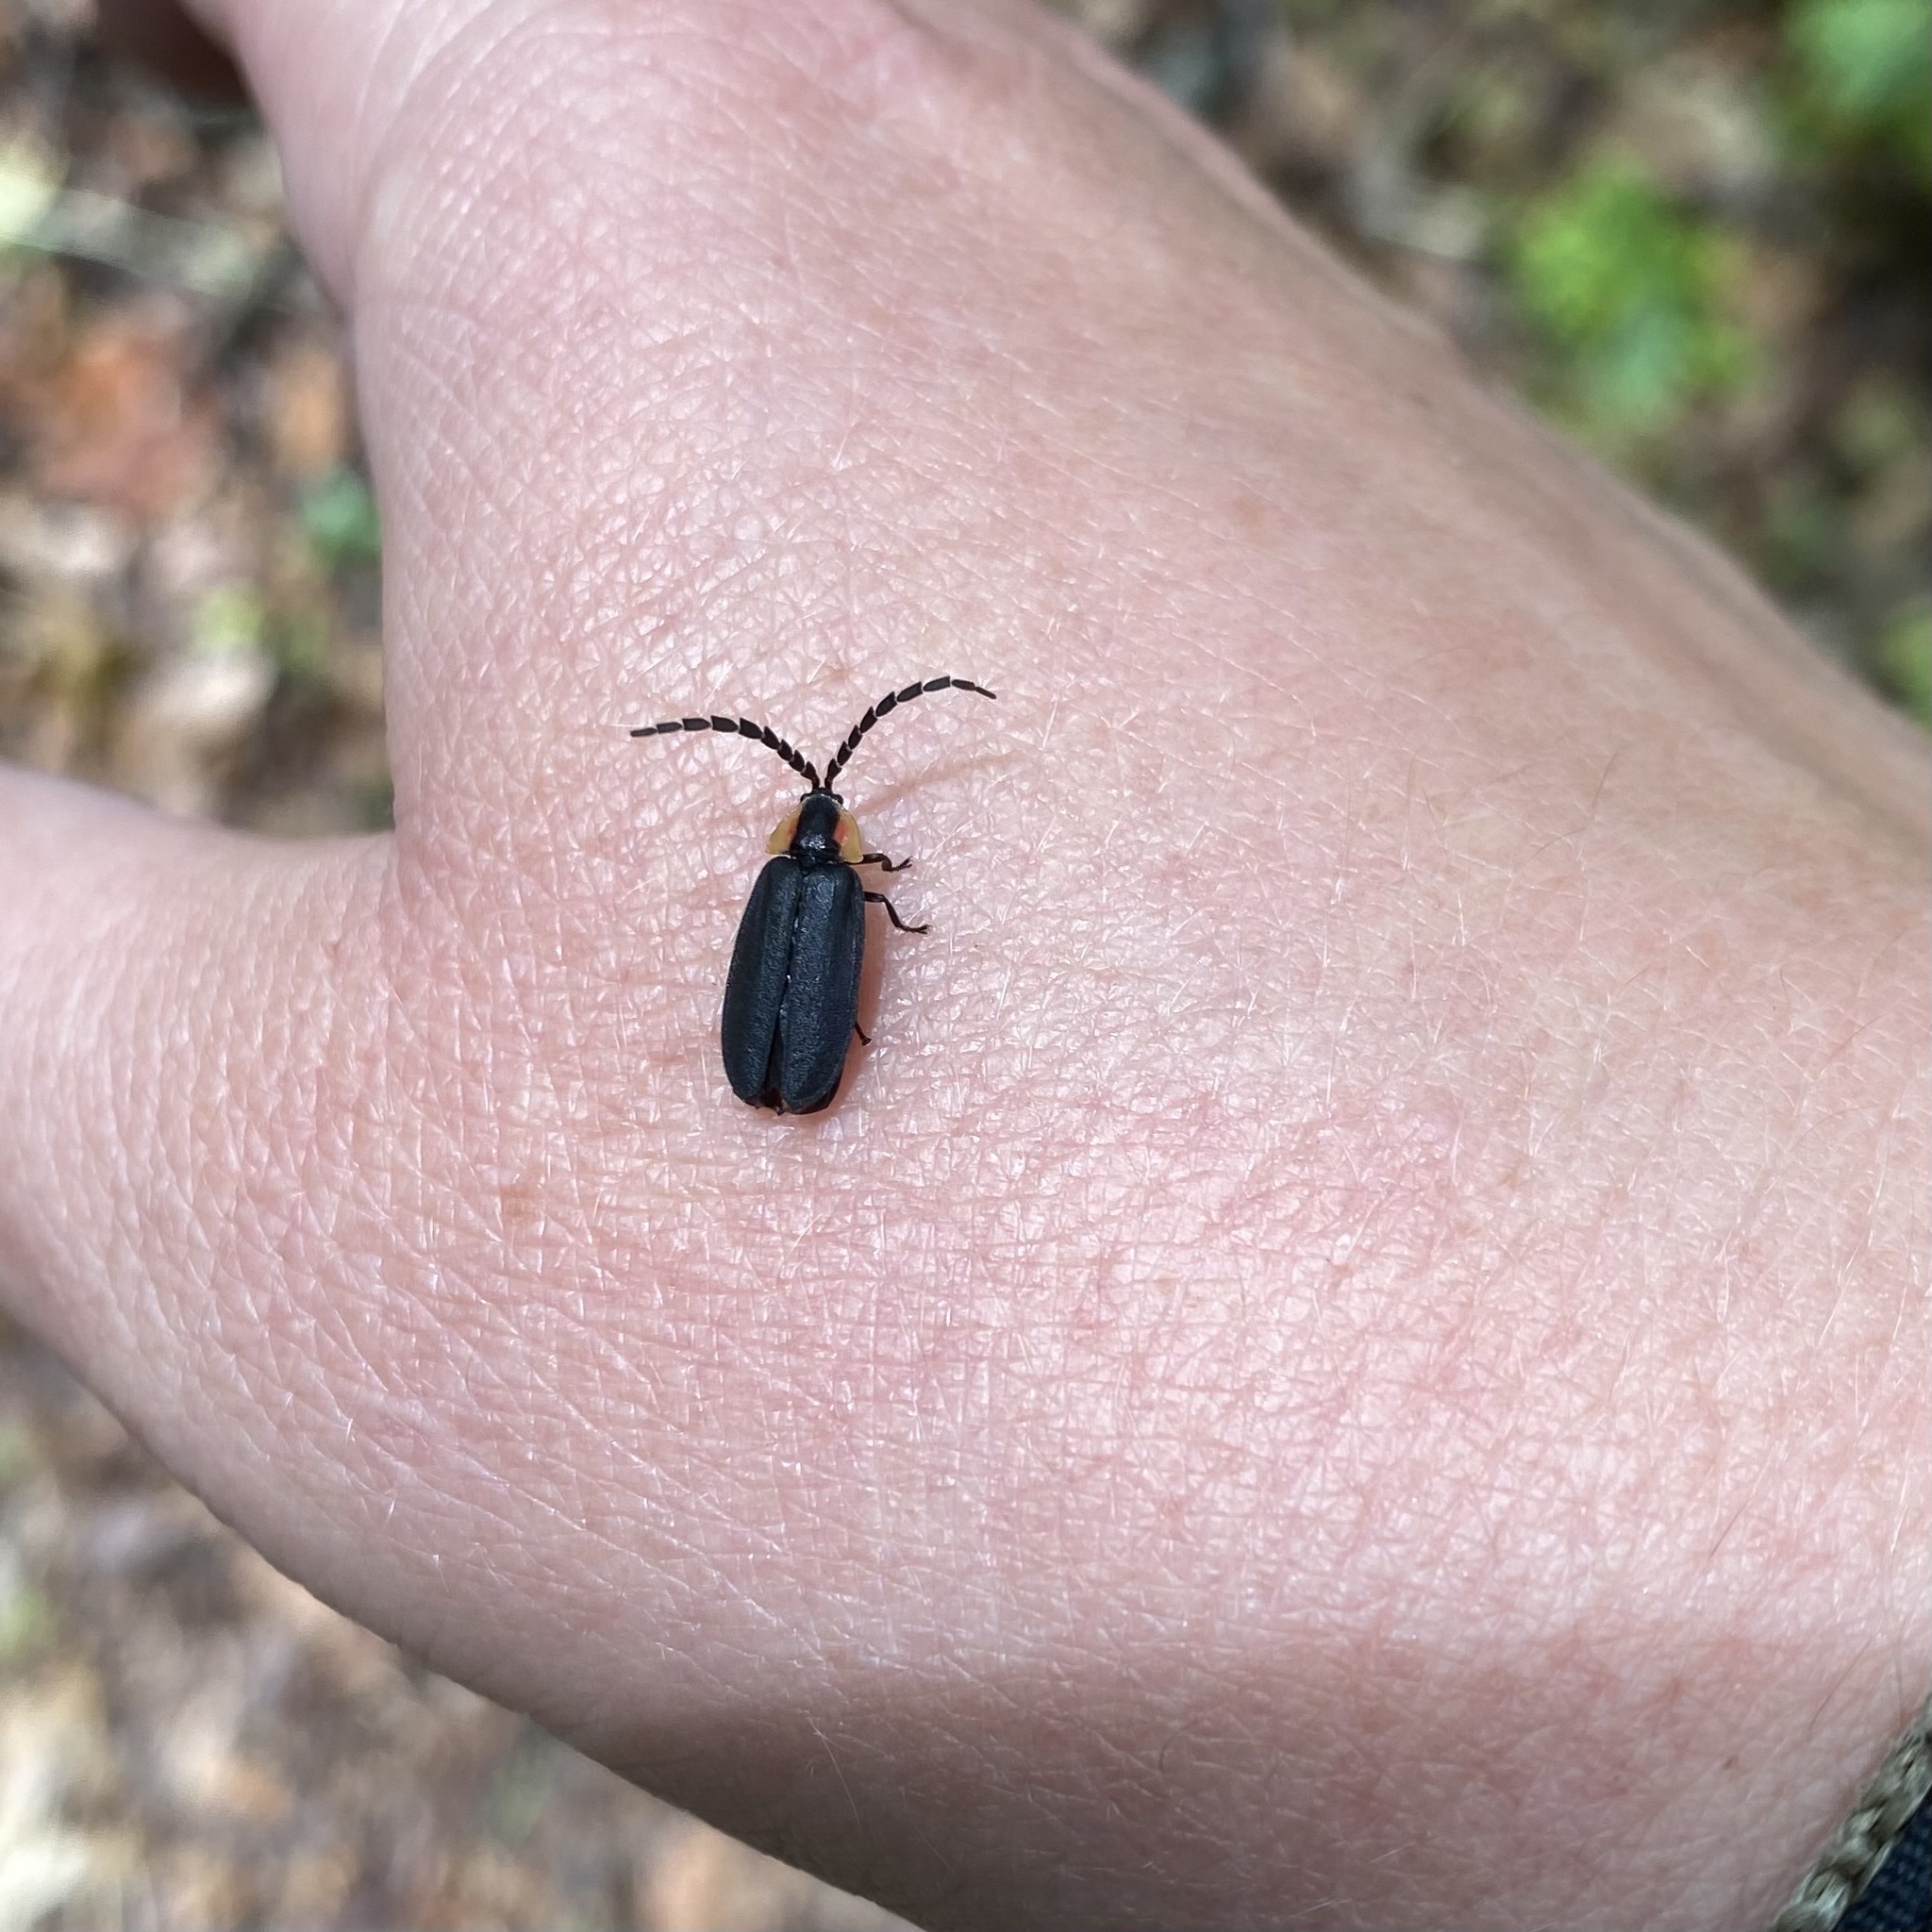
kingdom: Animalia
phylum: Arthropoda
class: Insecta
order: Coleoptera
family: Lampyridae
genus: Lucidota
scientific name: Lucidota atra
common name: Black firefly
